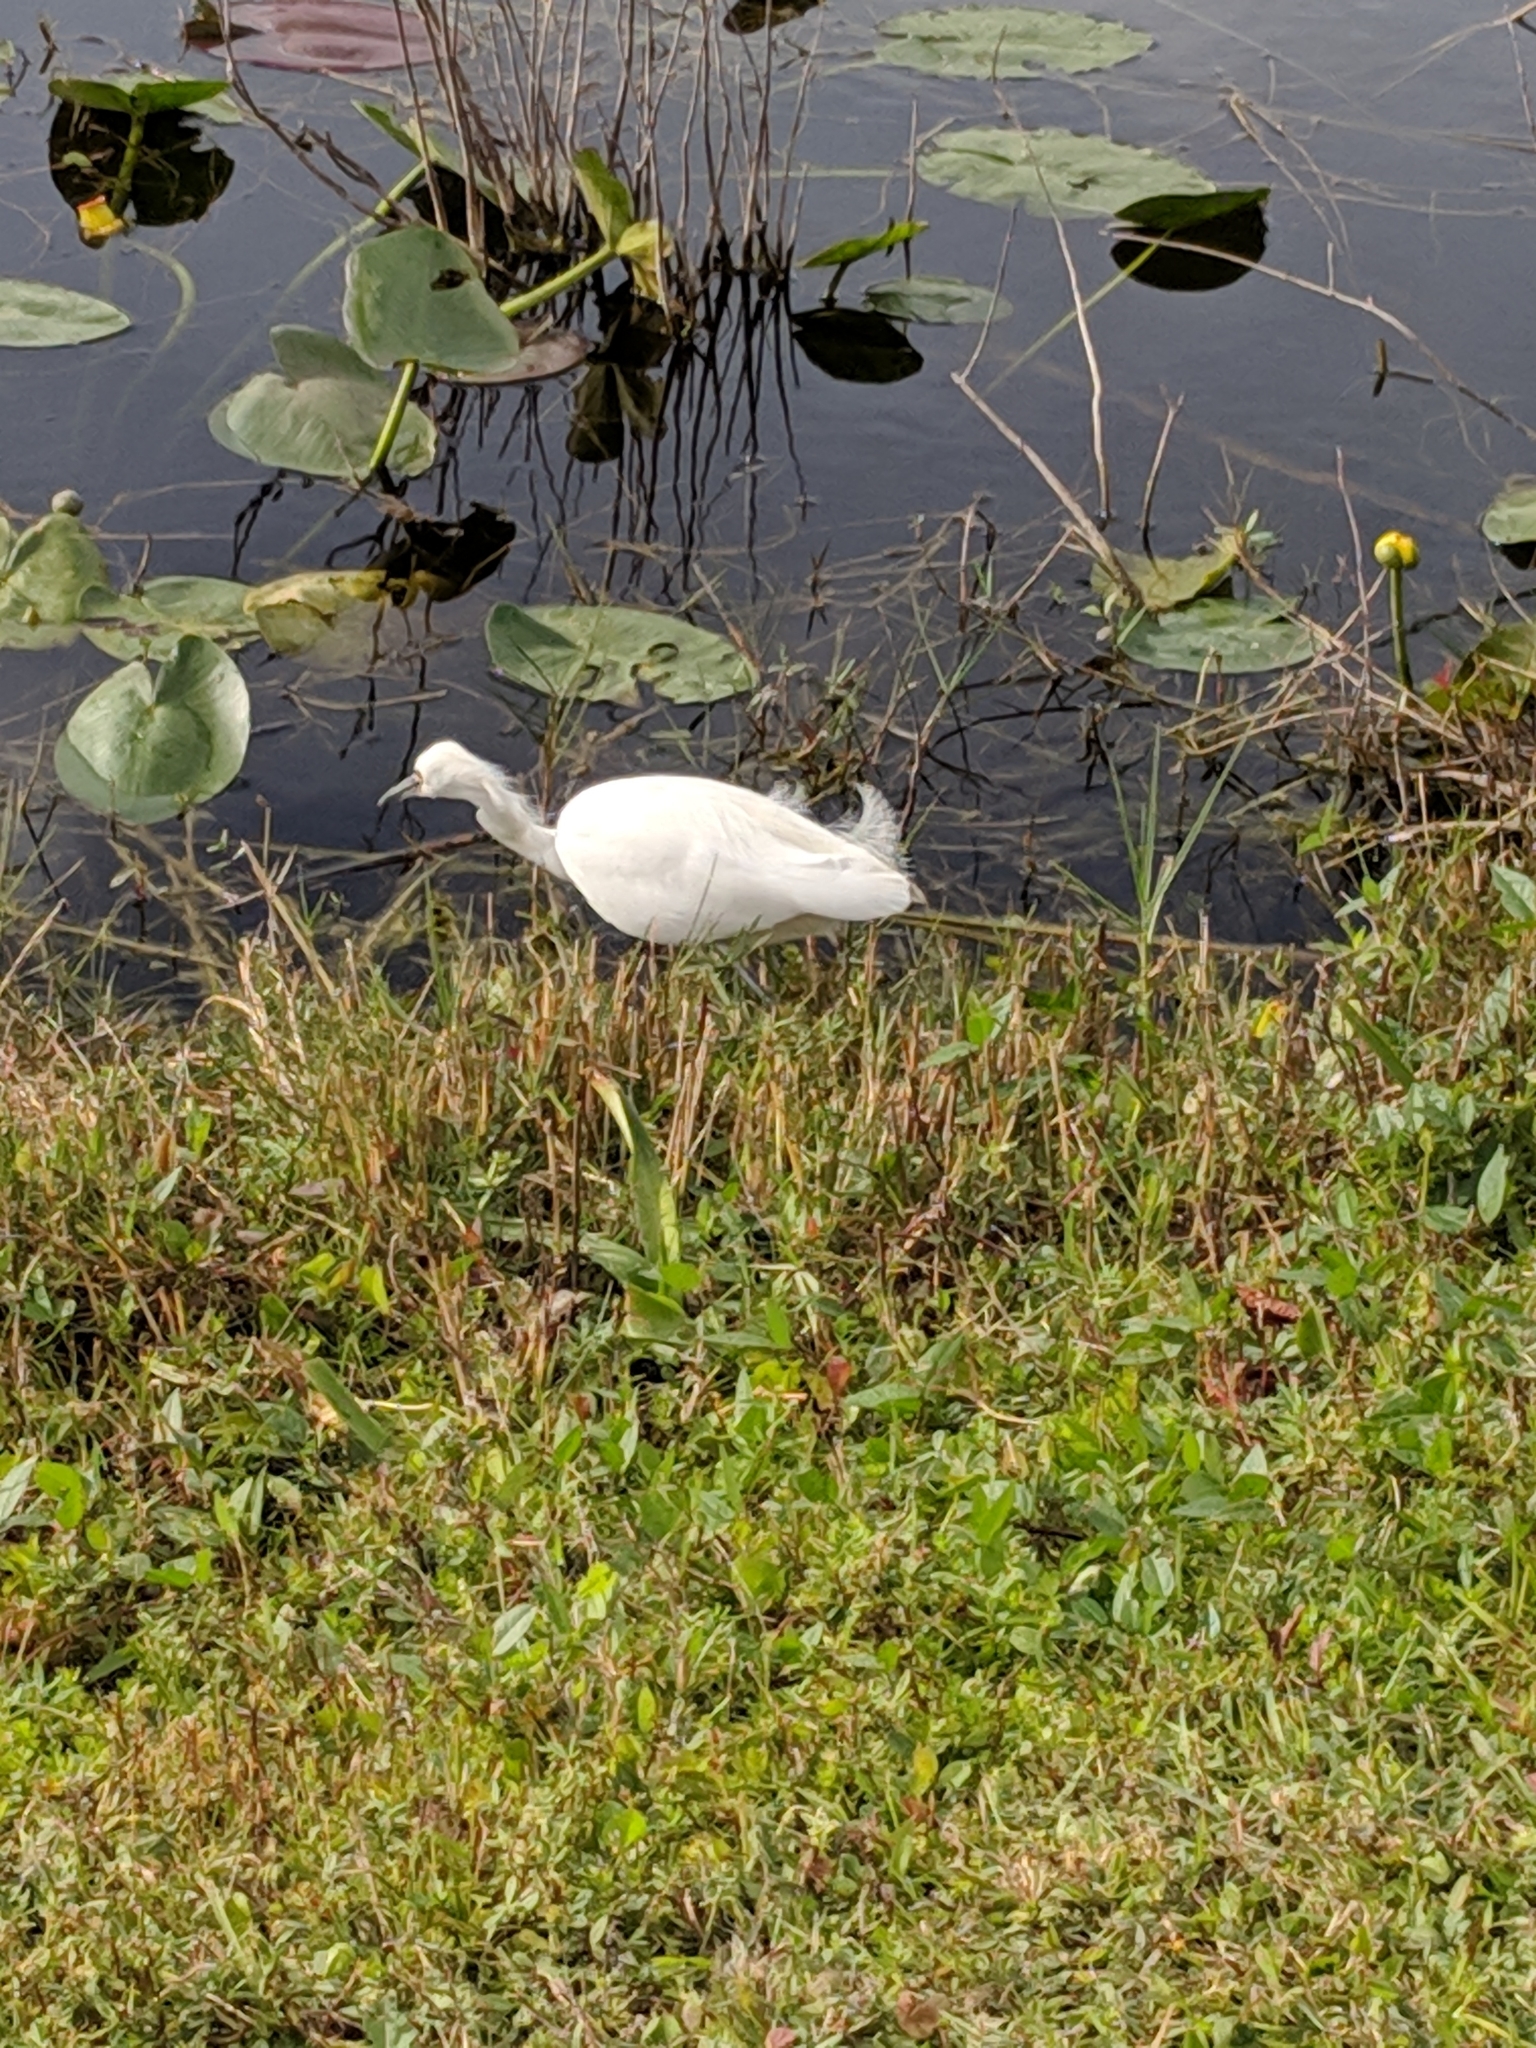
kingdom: Animalia
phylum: Chordata
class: Aves
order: Pelecaniformes
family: Ardeidae
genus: Egretta
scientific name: Egretta thula
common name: Snowy egret
